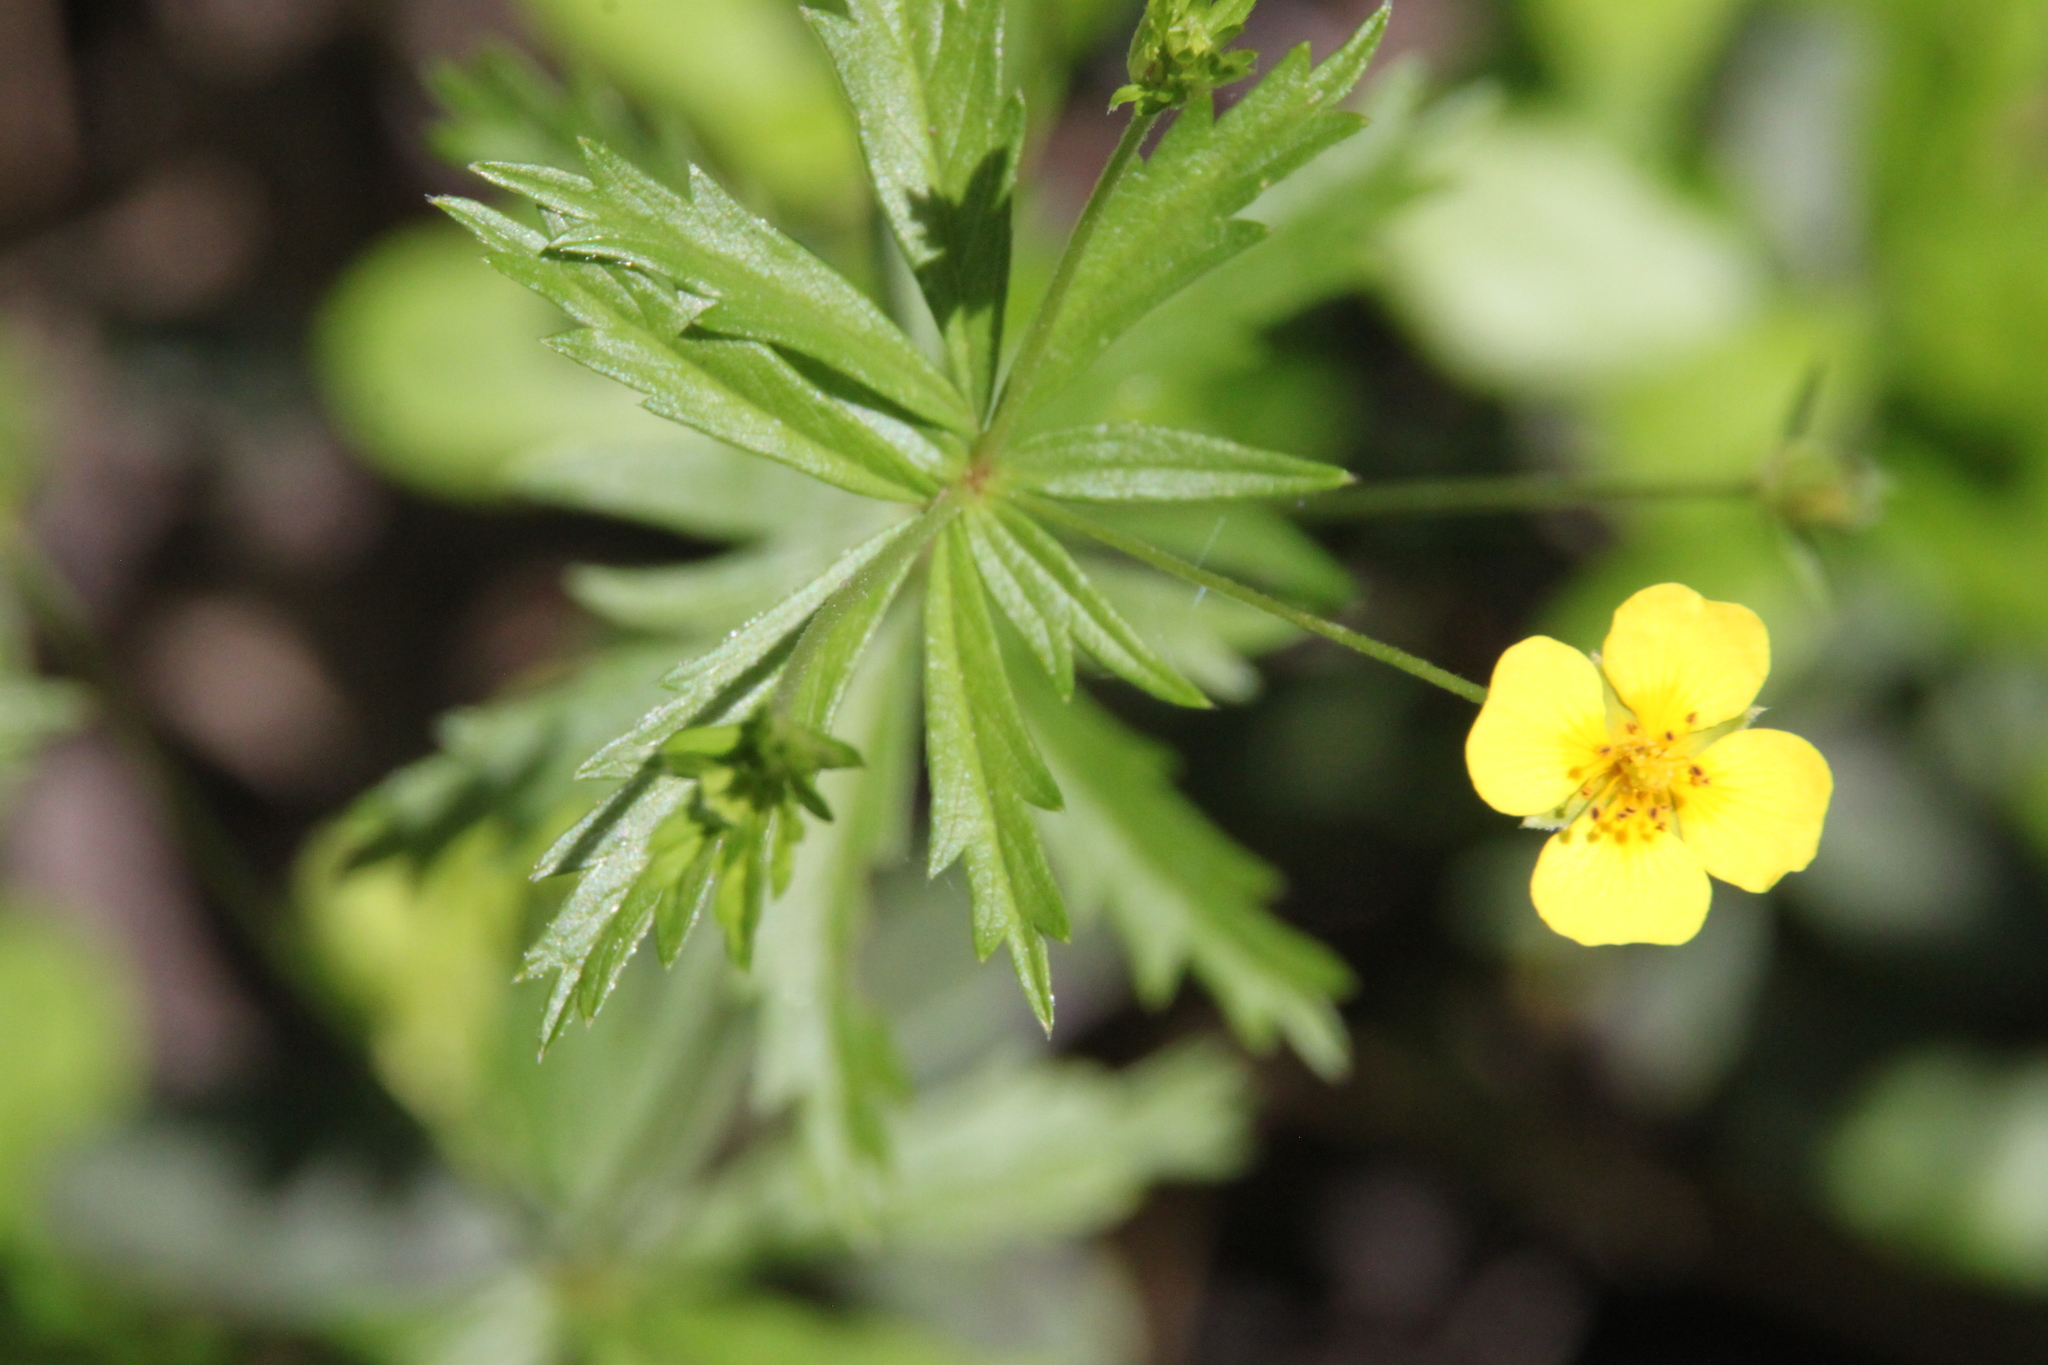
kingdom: Plantae
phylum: Tracheophyta
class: Magnoliopsida
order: Rosales
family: Rosaceae
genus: Potentilla
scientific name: Potentilla erecta
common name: Tormentil
